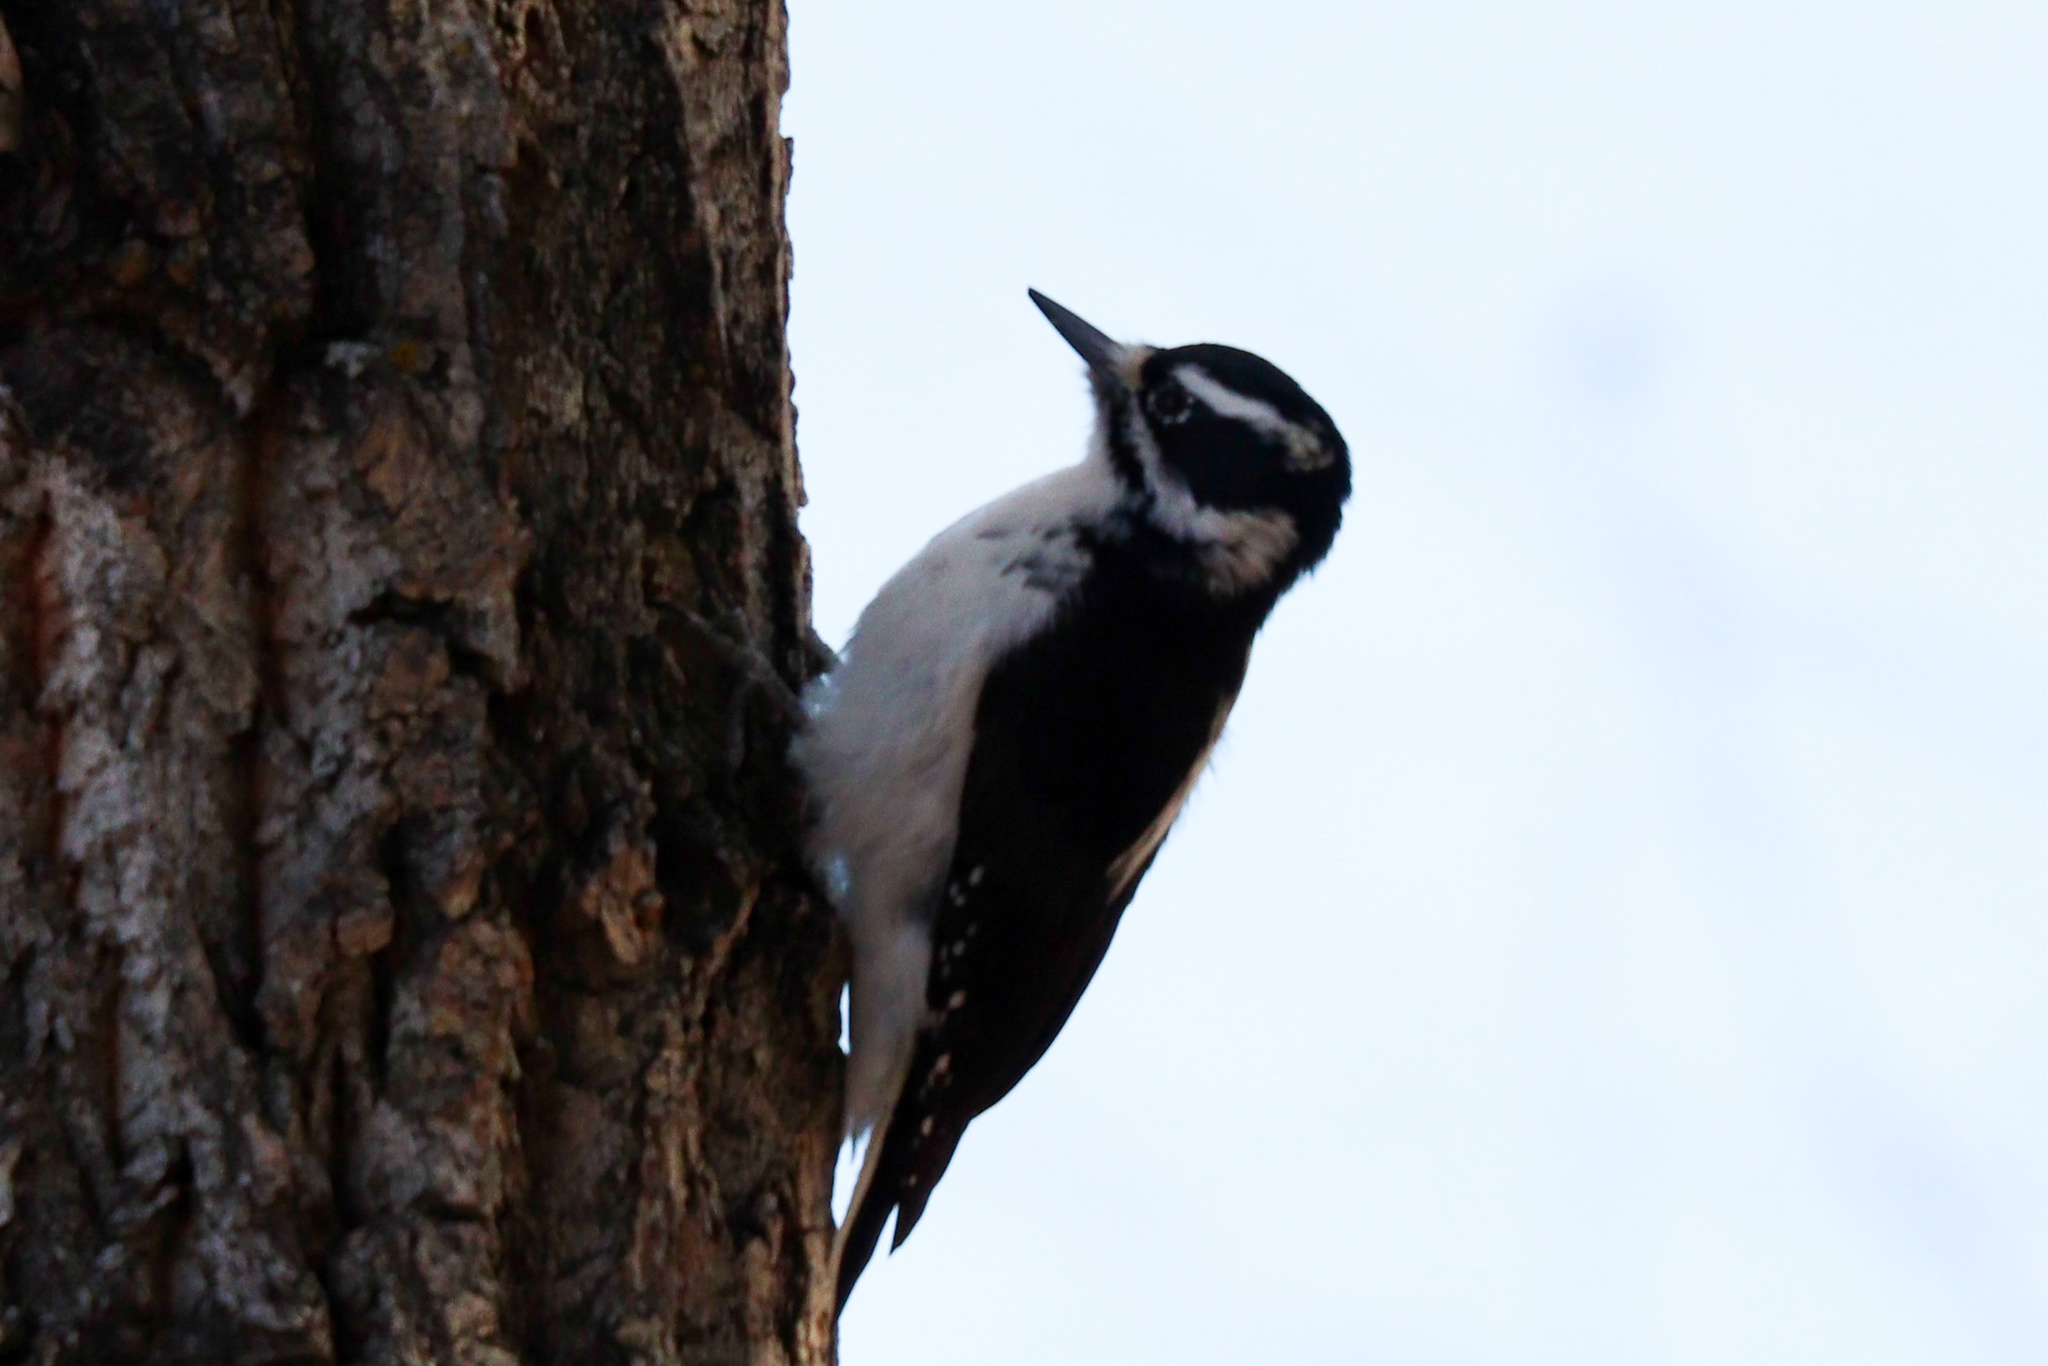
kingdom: Animalia
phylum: Chordata
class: Aves
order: Piciformes
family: Picidae
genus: Leuconotopicus
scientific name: Leuconotopicus villosus
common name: Hairy woodpecker
